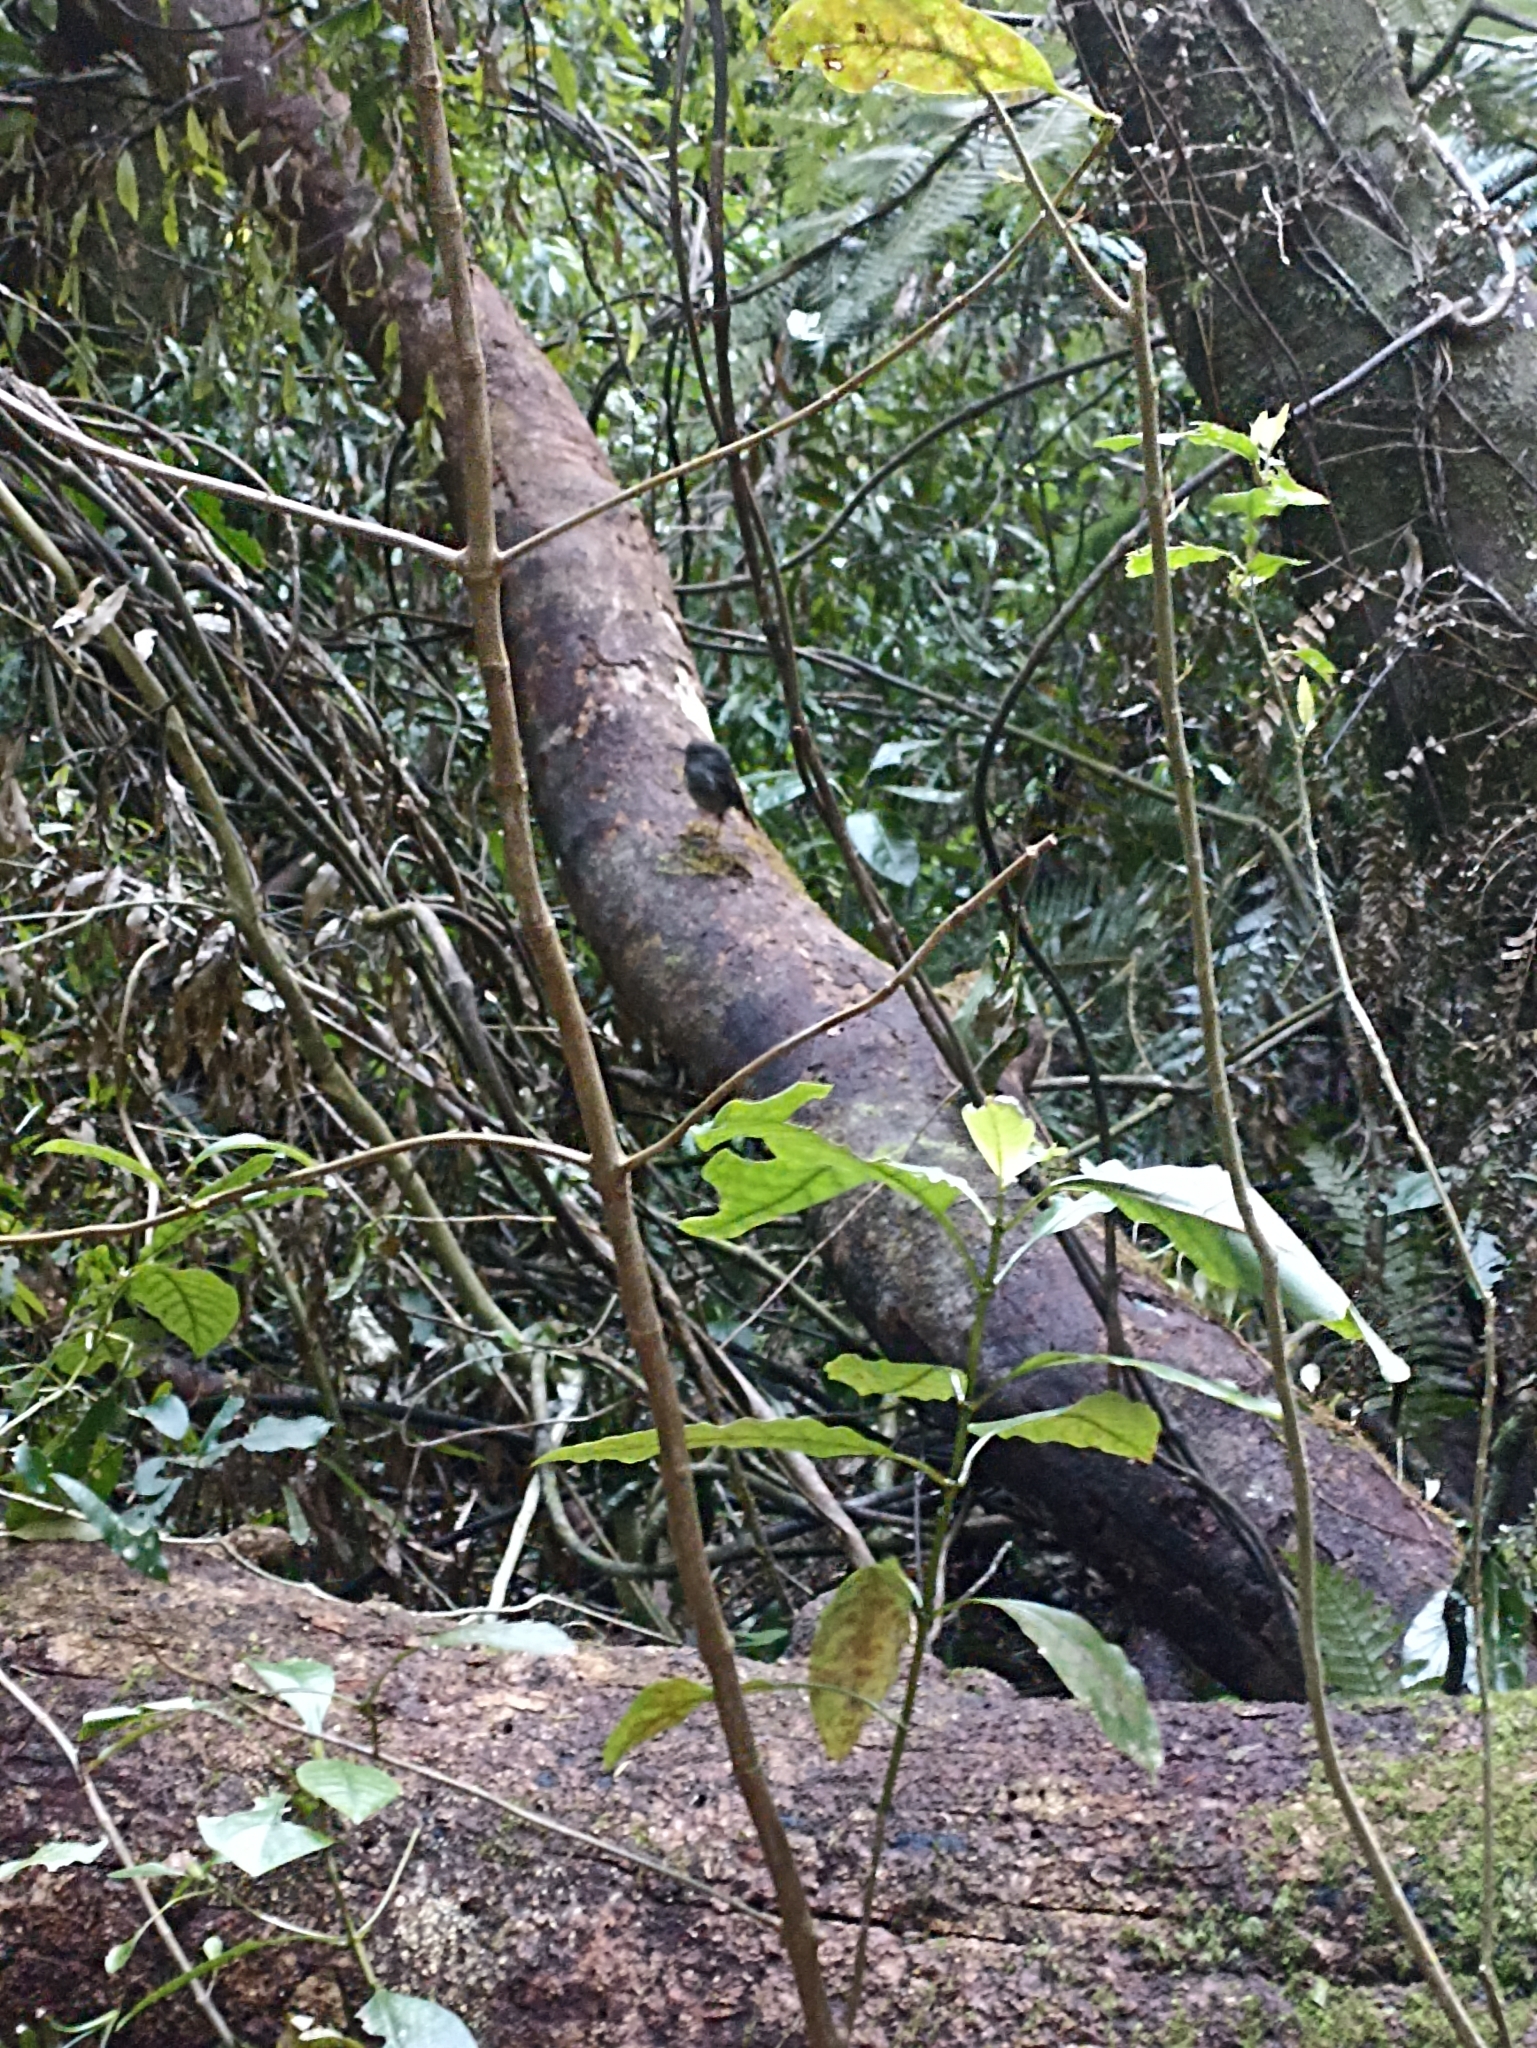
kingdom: Animalia
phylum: Chordata
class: Aves
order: Passeriformes
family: Petroicidae
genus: Petroica
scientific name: Petroica australis
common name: New zealand robin
